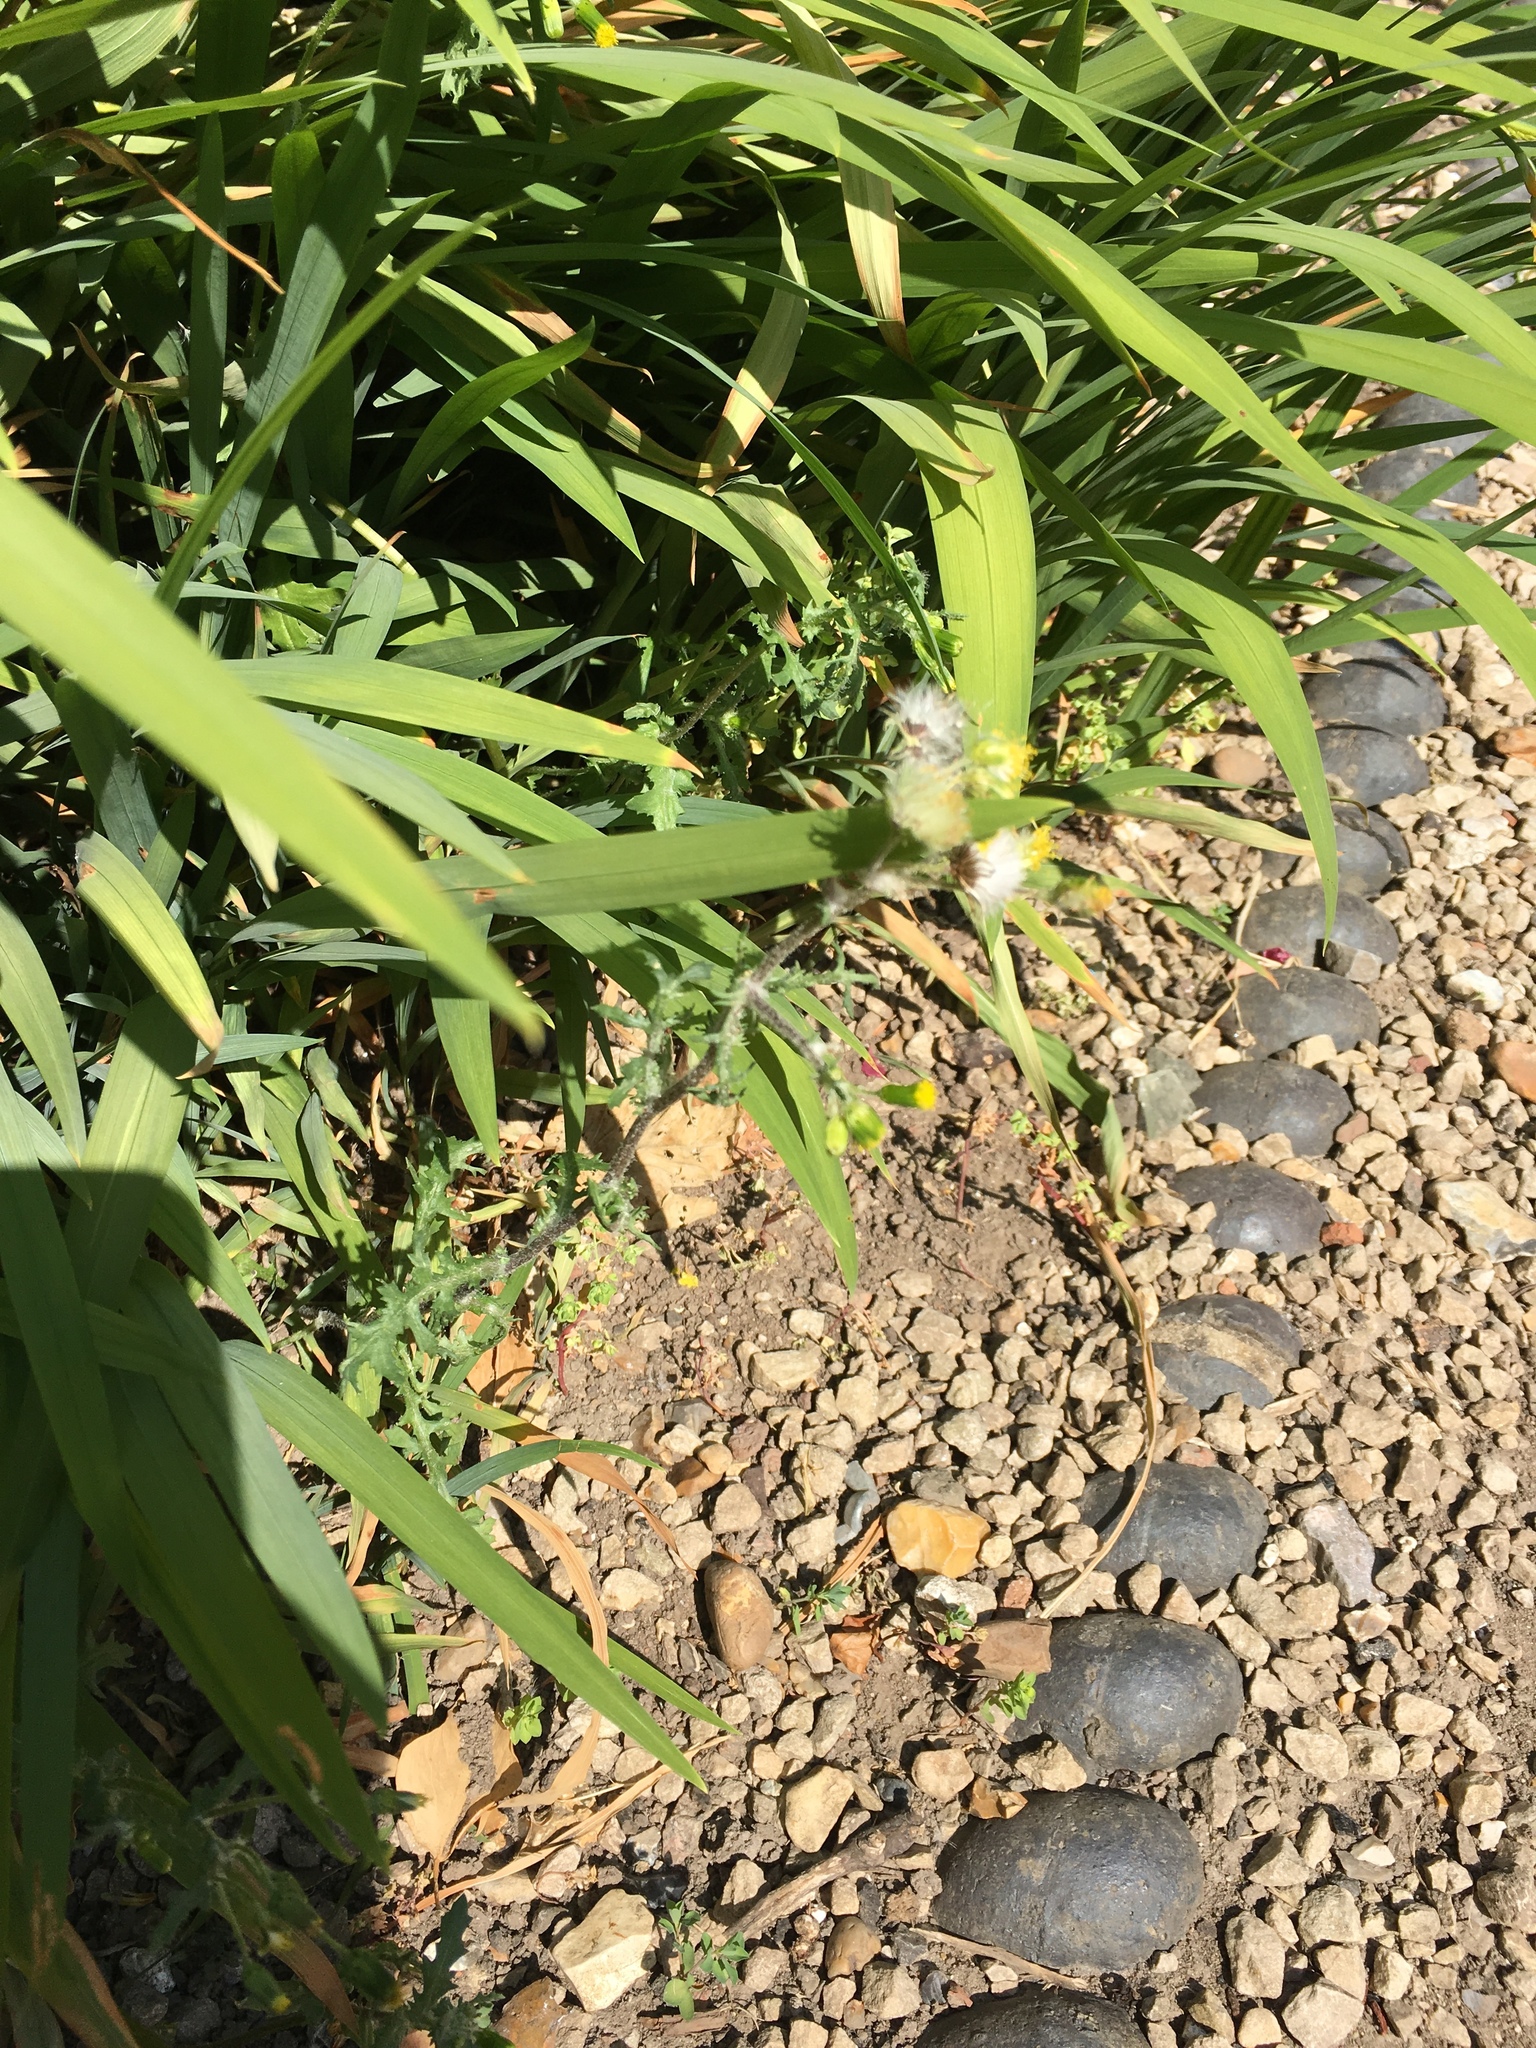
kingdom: Plantae
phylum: Tracheophyta
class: Magnoliopsida
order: Asterales
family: Asteraceae
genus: Senecio
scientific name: Senecio vulgaris
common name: Old-man-in-the-spring
